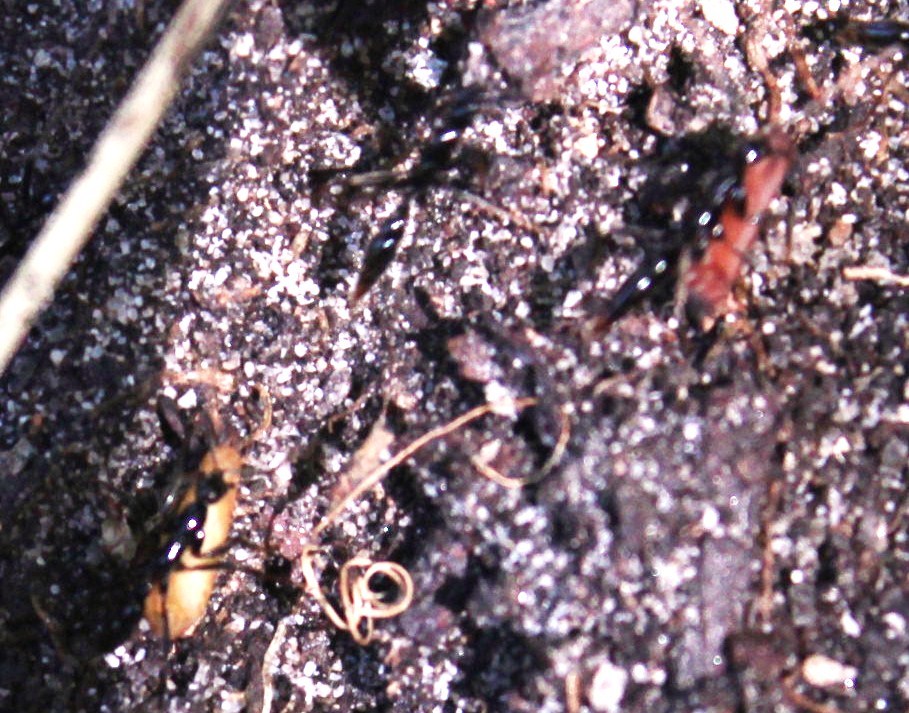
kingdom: Animalia
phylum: Arthropoda
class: Insecta
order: Hymenoptera
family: Formicidae
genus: Leptogenys
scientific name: Leptogenys intermedia
